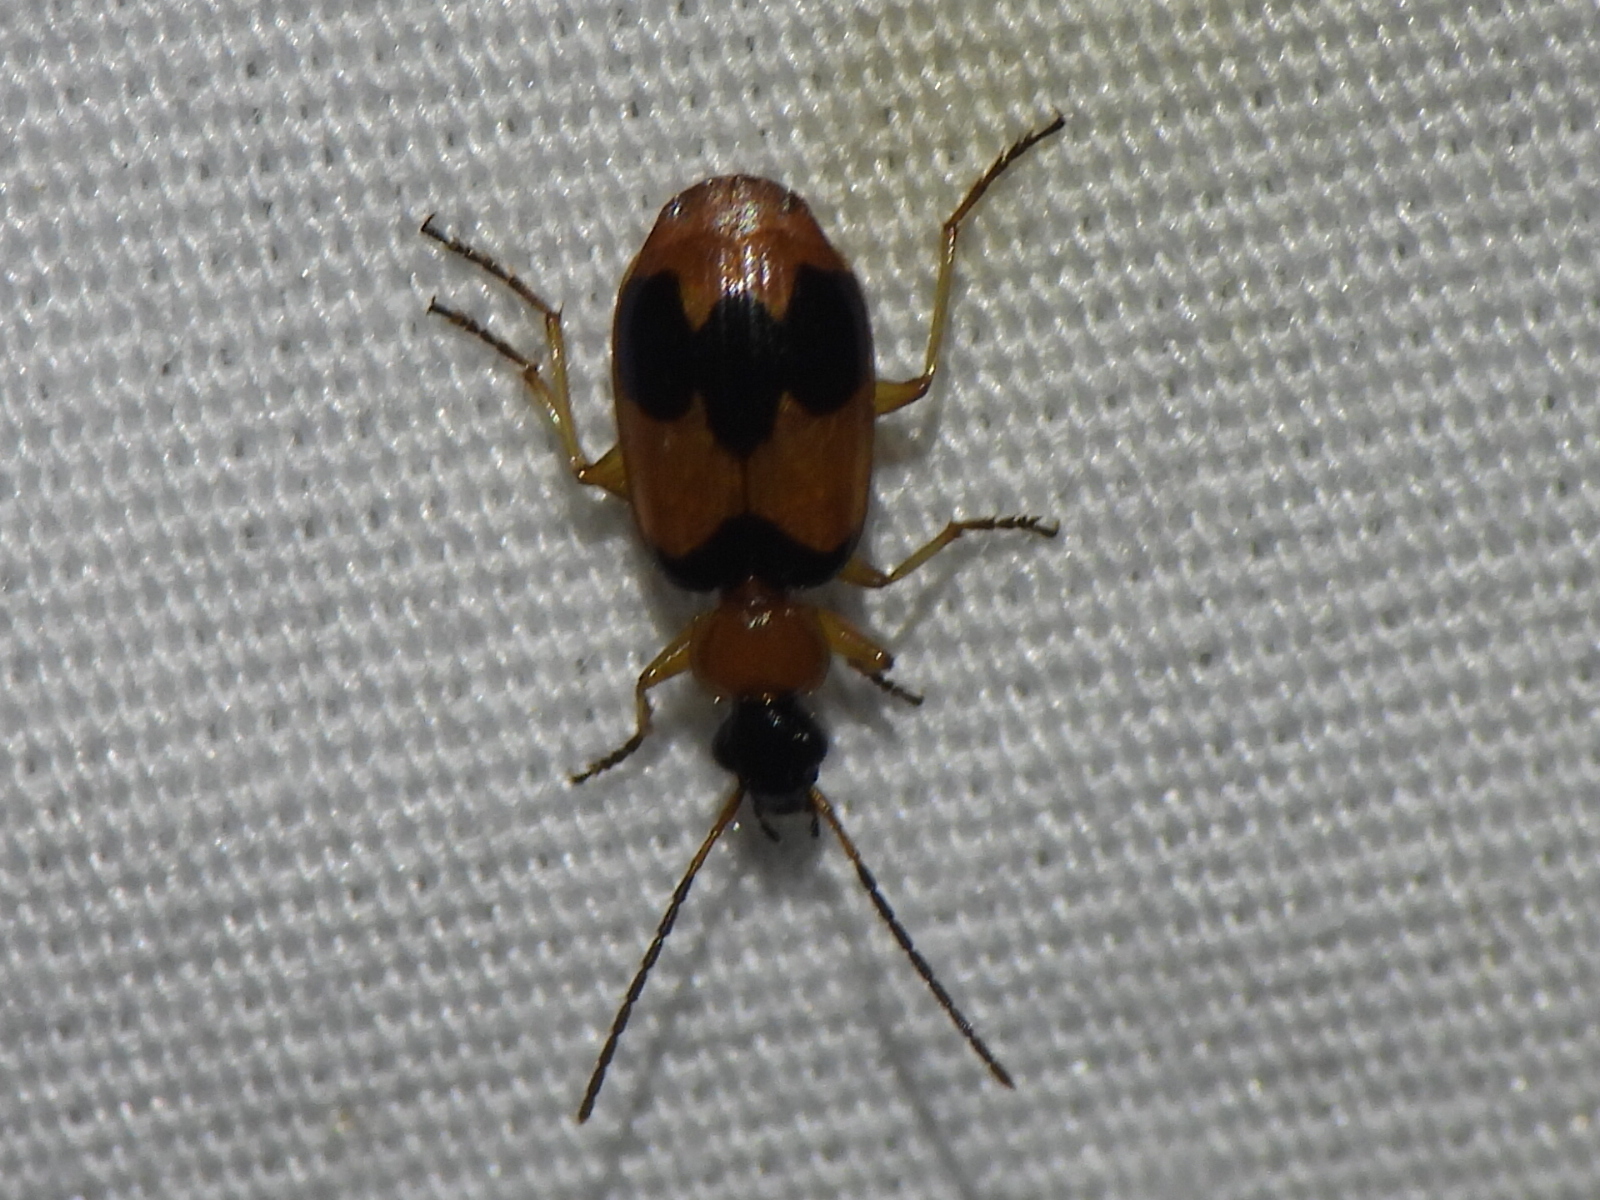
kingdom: Animalia
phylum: Arthropoda
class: Insecta
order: Coleoptera
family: Carabidae
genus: Lebia
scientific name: Lebia pulchella
